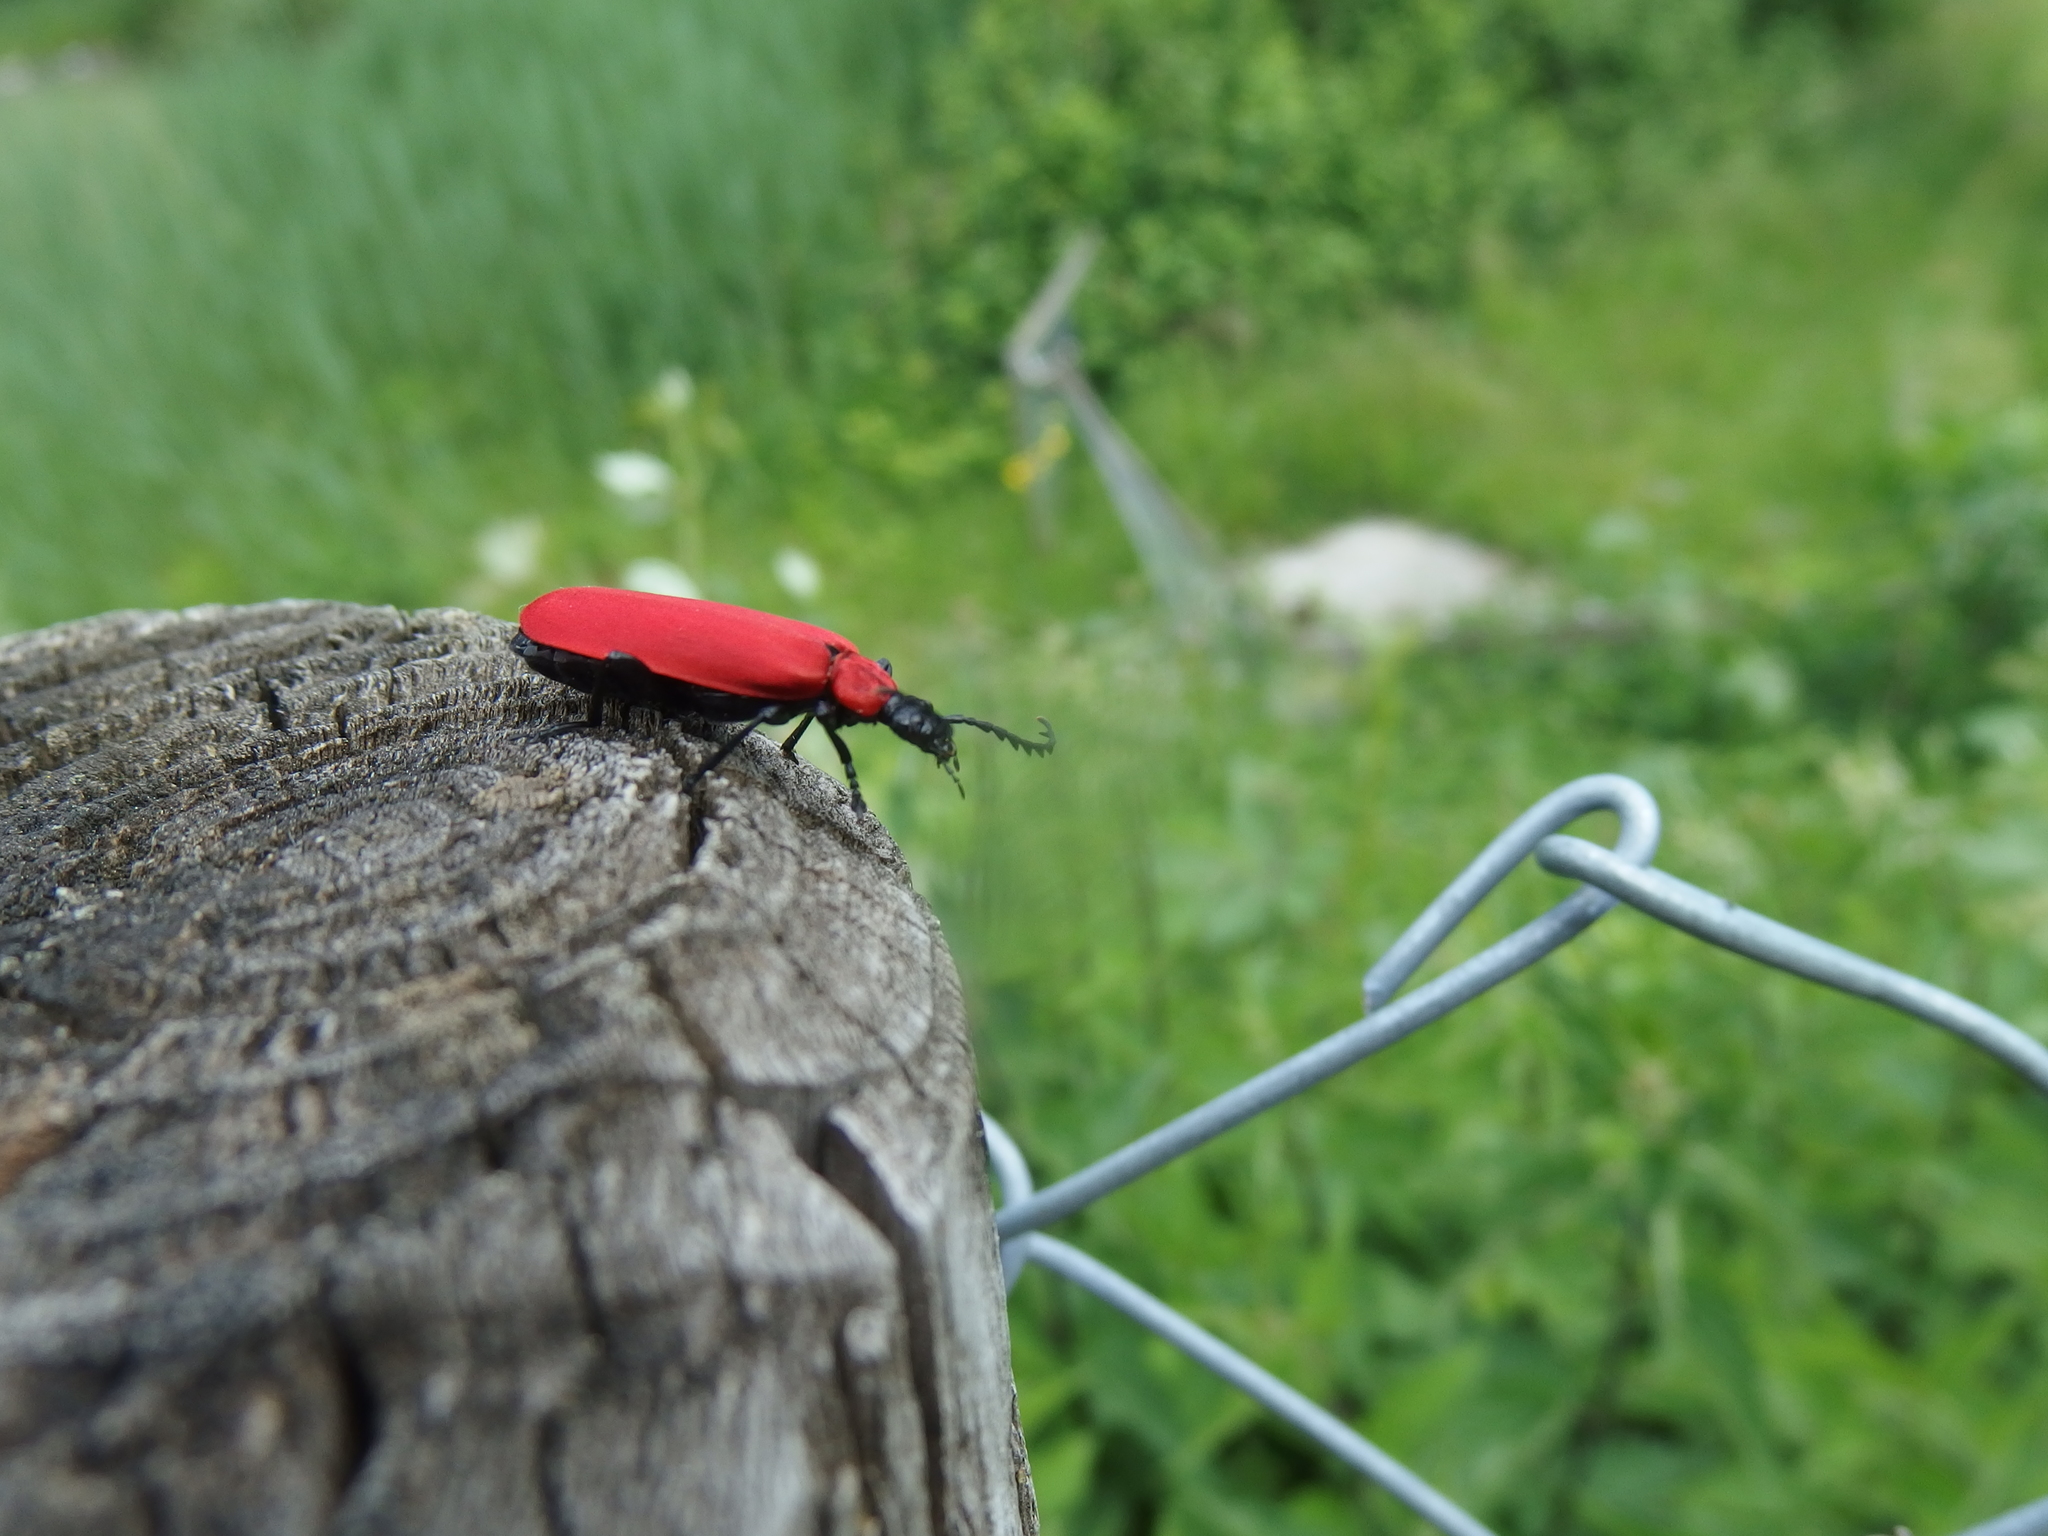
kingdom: Animalia
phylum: Arthropoda
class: Insecta
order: Coleoptera
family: Pyrochroidae
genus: Pyrochroa
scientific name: Pyrochroa coccinea
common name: Black-headed cardinal beetle
